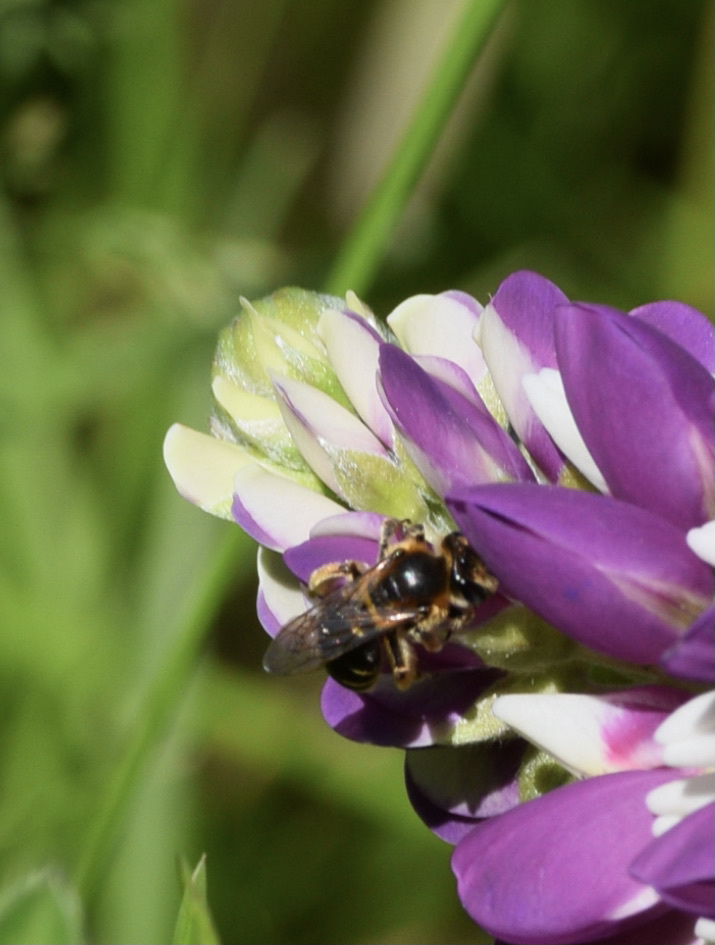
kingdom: Animalia
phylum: Arthropoda
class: Insecta
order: Hymenoptera
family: Andrenidae
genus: Andrena
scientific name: Andrena wilkella
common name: Wilke's mining bee
